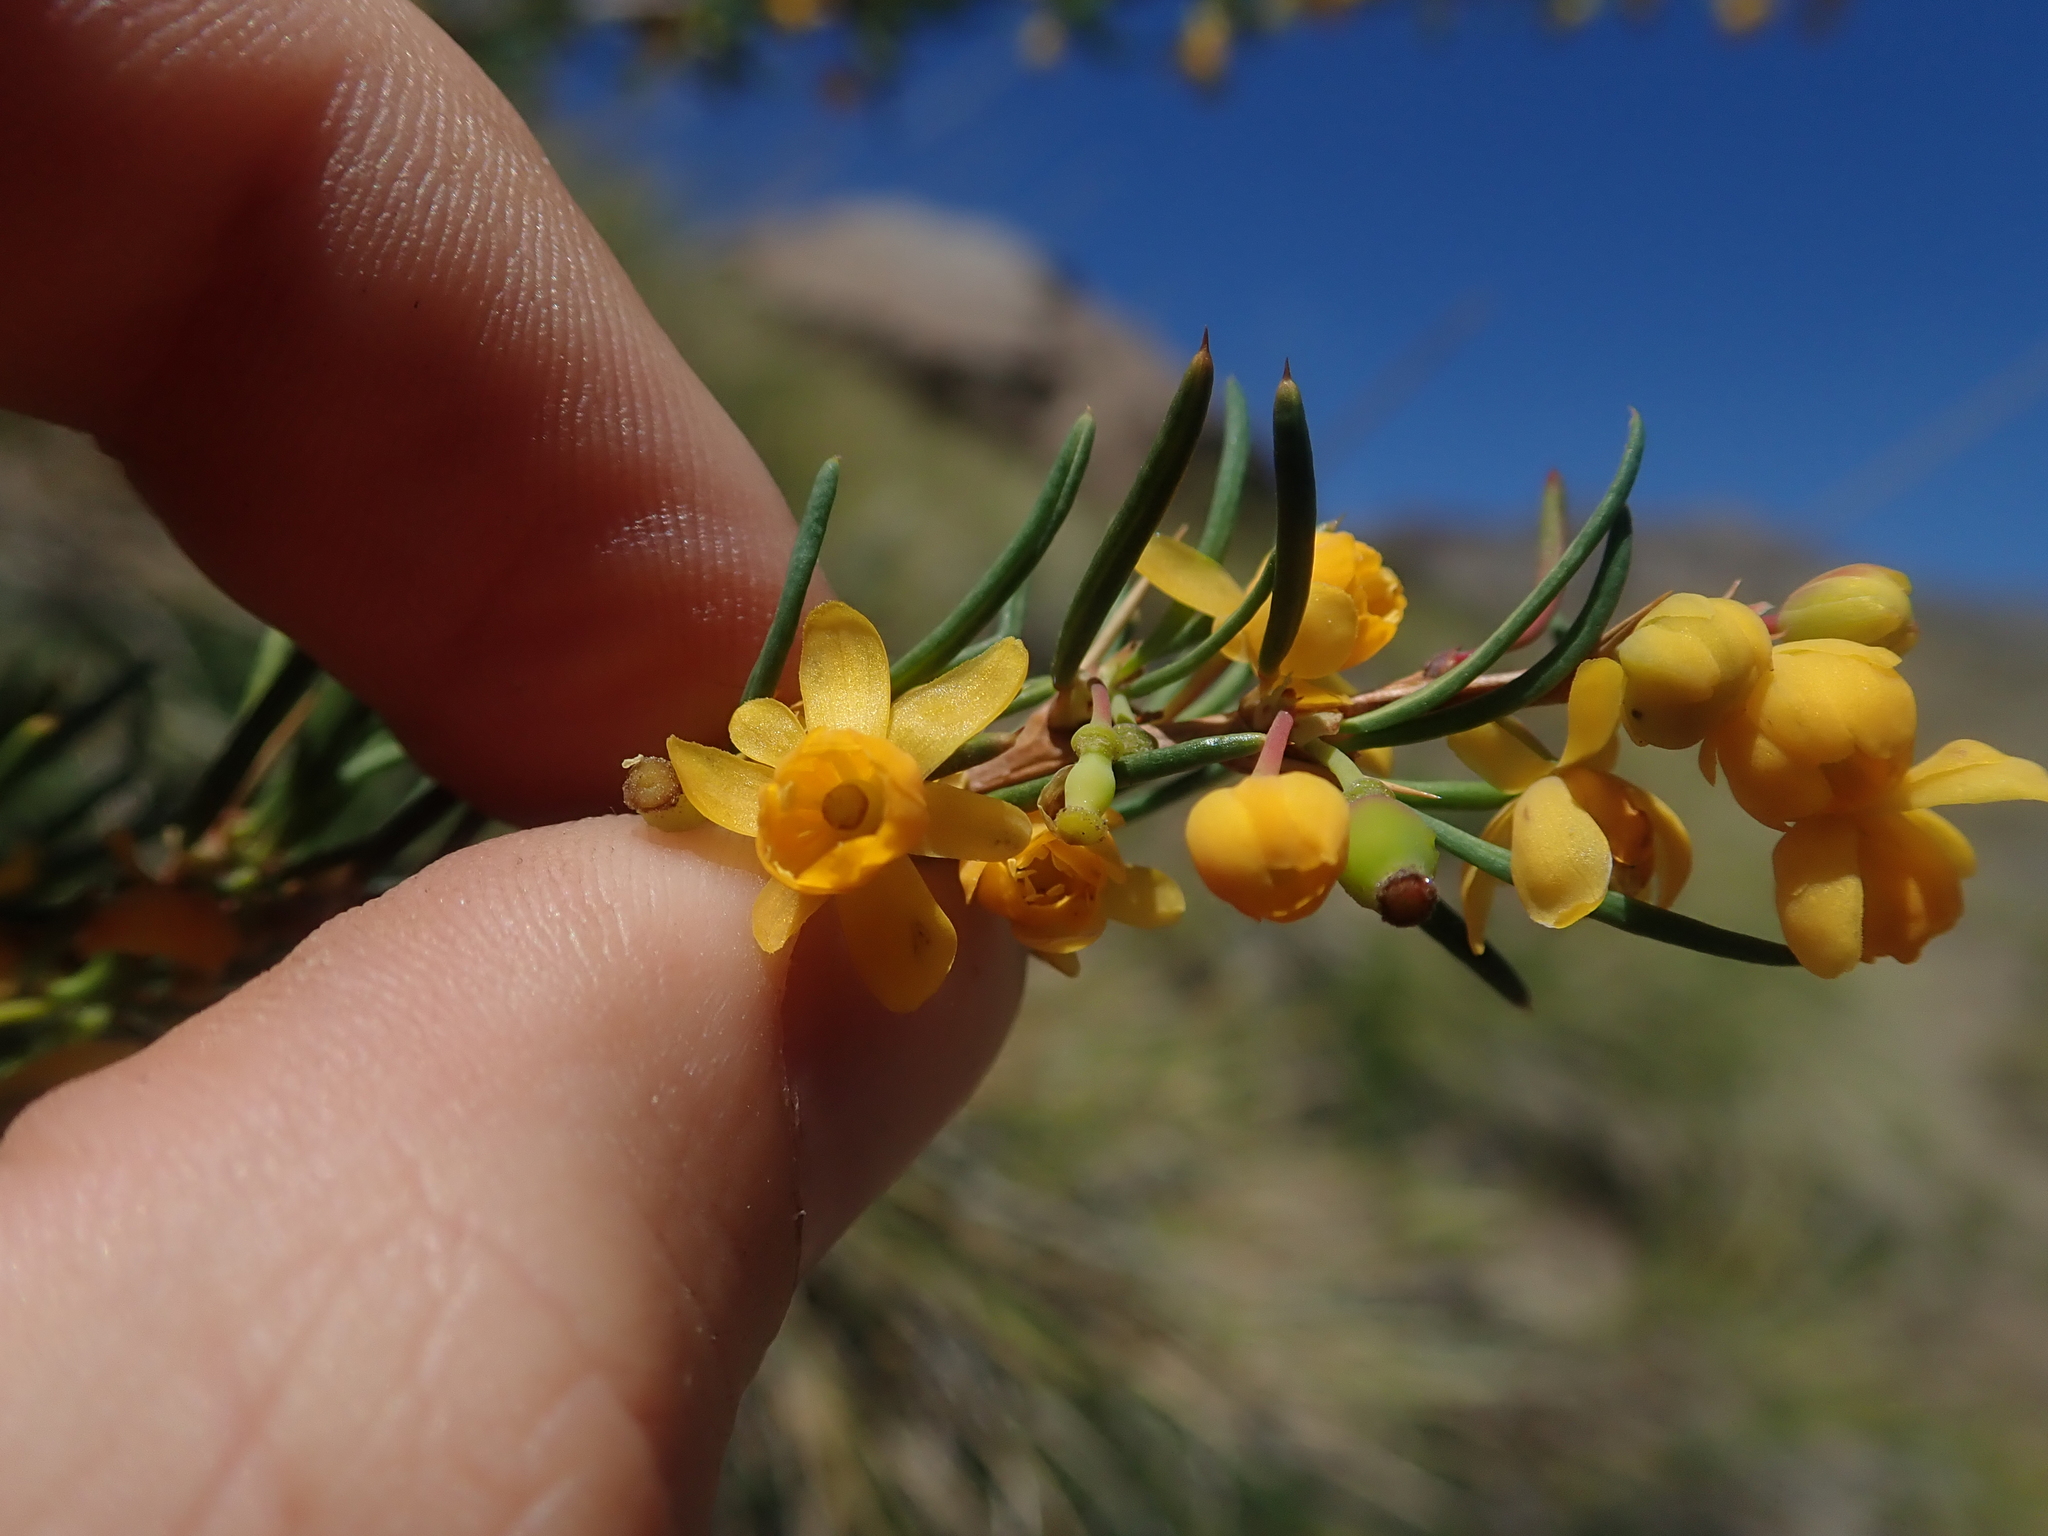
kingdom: Plantae
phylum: Tracheophyta
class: Magnoliopsida
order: Ranunculales
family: Berberidaceae
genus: Berberis
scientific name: Berberis empetrifolia
